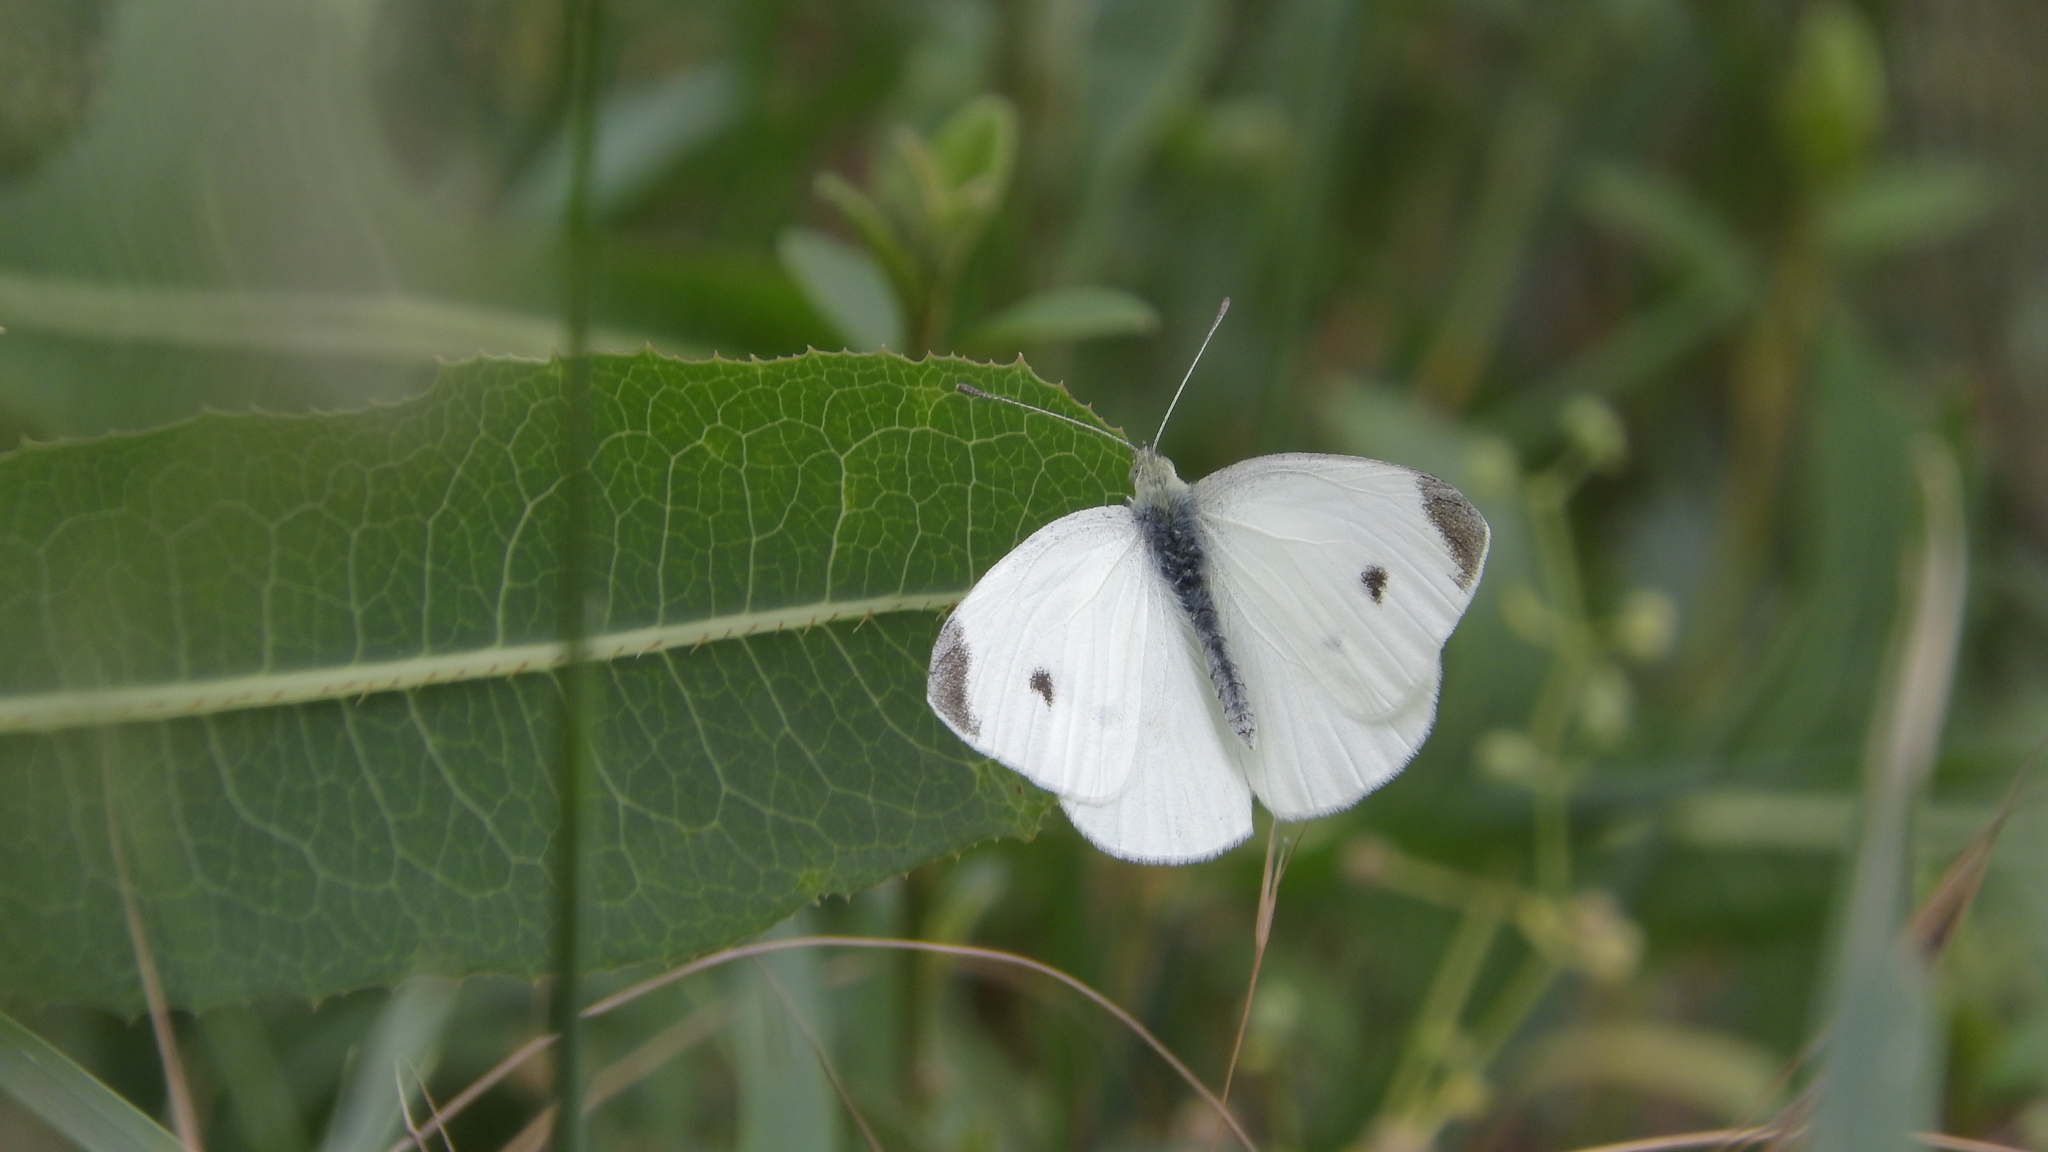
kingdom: Animalia
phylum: Arthropoda
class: Insecta
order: Lepidoptera
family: Pieridae
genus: Pieris
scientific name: Pieris rapae
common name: Small white
